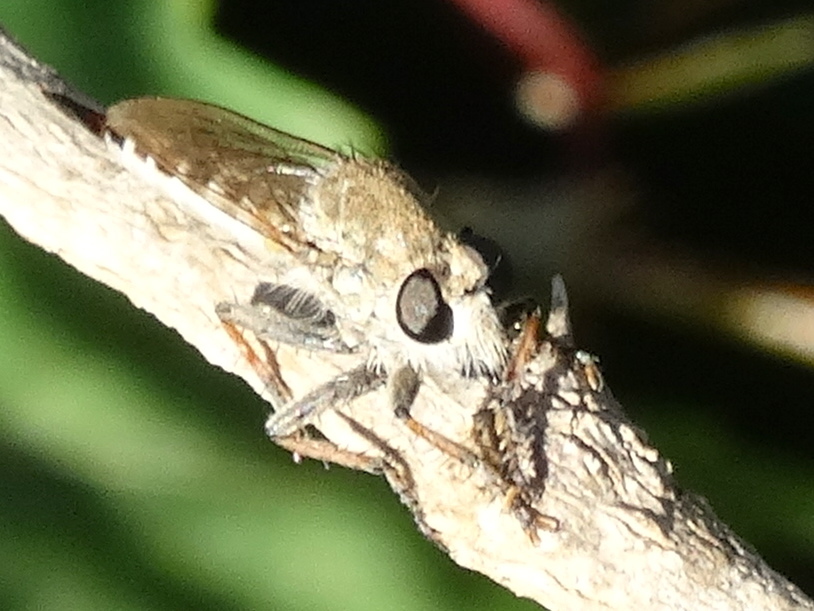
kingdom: Animalia
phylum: Arthropoda
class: Insecta
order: Diptera
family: Asilidae
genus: Efferia
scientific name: Efferia
